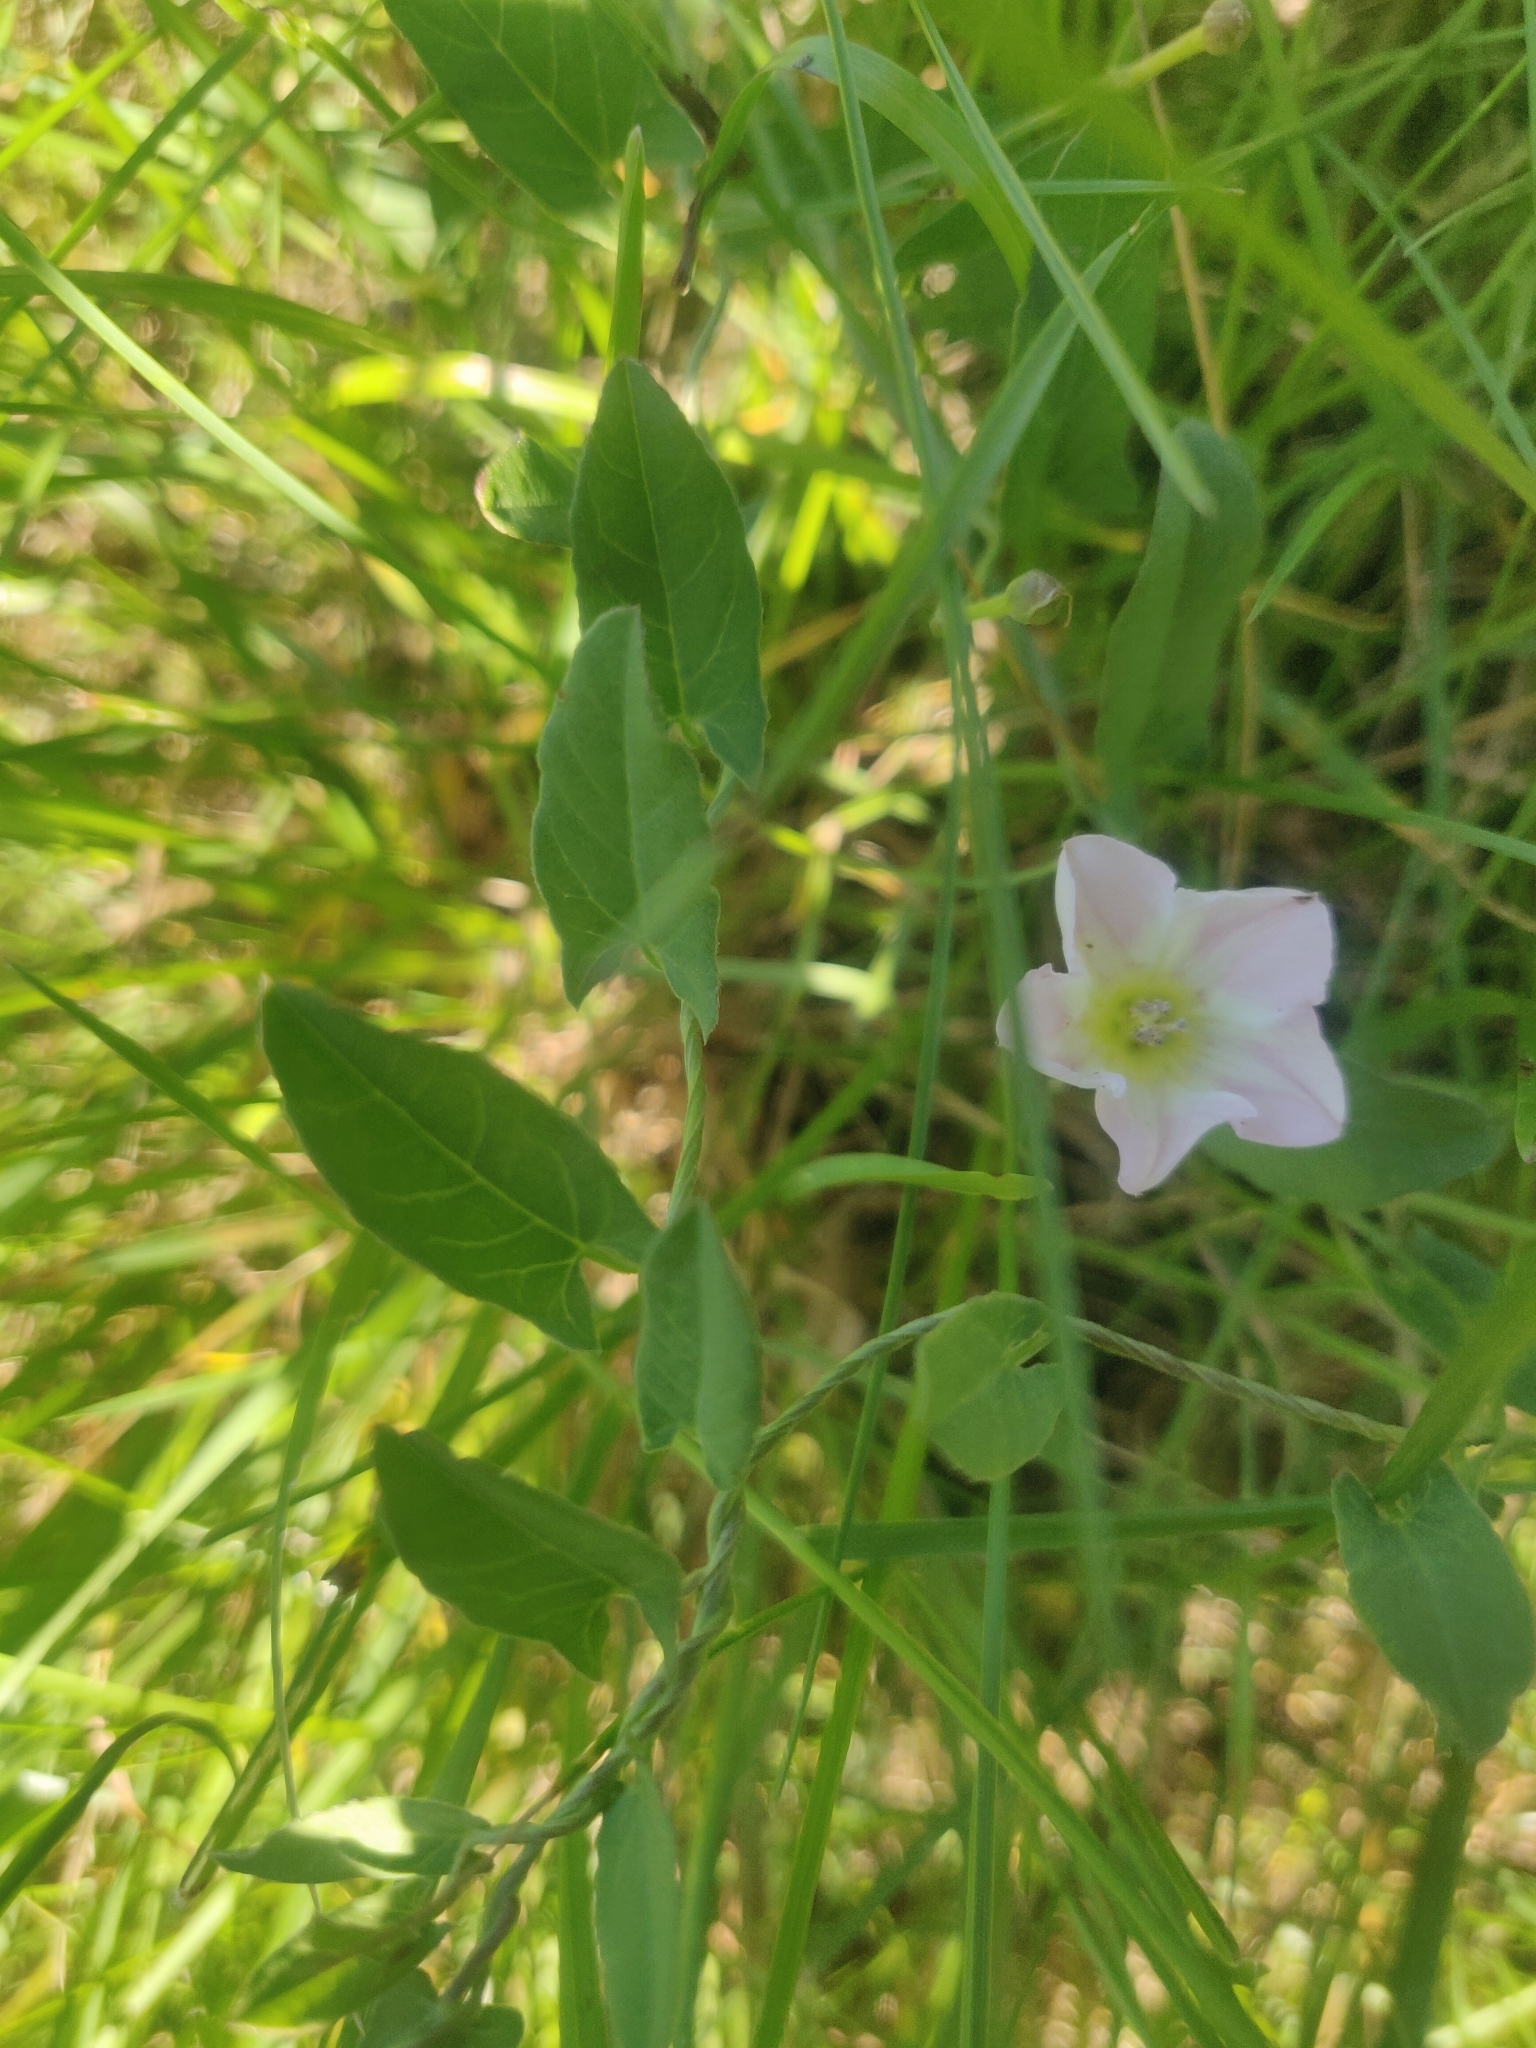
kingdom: Plantae
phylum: Tracheophyta
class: Magnoliopsida
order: Solanales
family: Convolvulaceae
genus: Convolvulus
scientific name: Convolvulus arvensis
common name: Field bindweed
